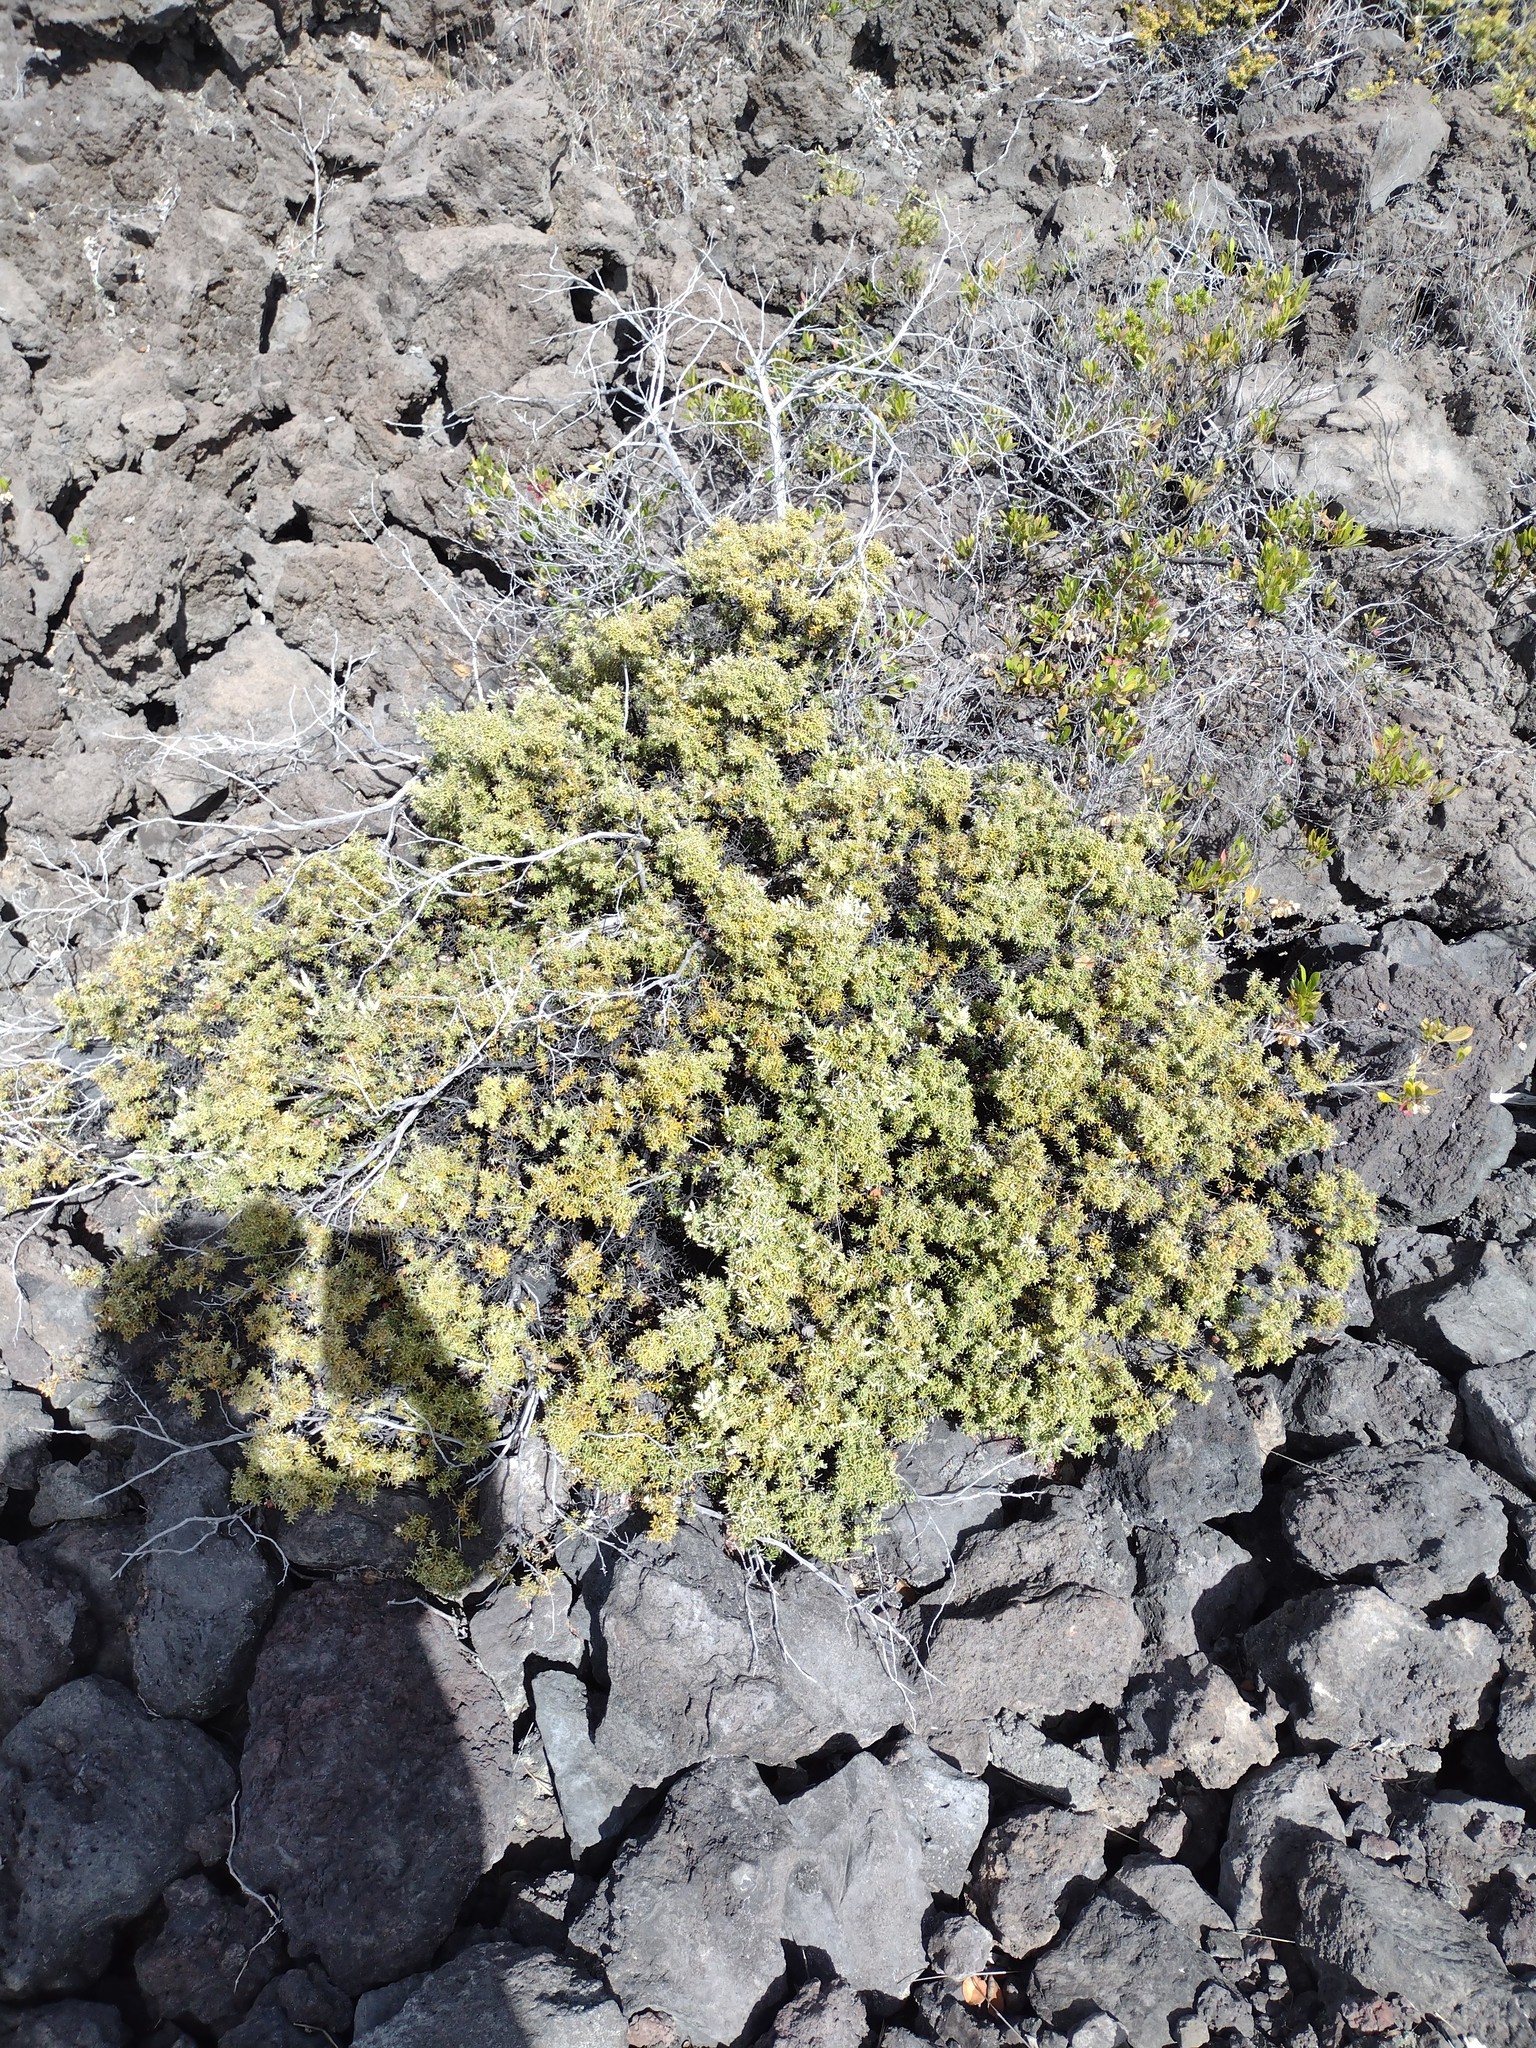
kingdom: Plantae
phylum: Tracheophyta
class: Magnoliopsida
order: Ericales
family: Ericaceae
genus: Leptecophylla
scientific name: Leptecophylla tameiameiae
